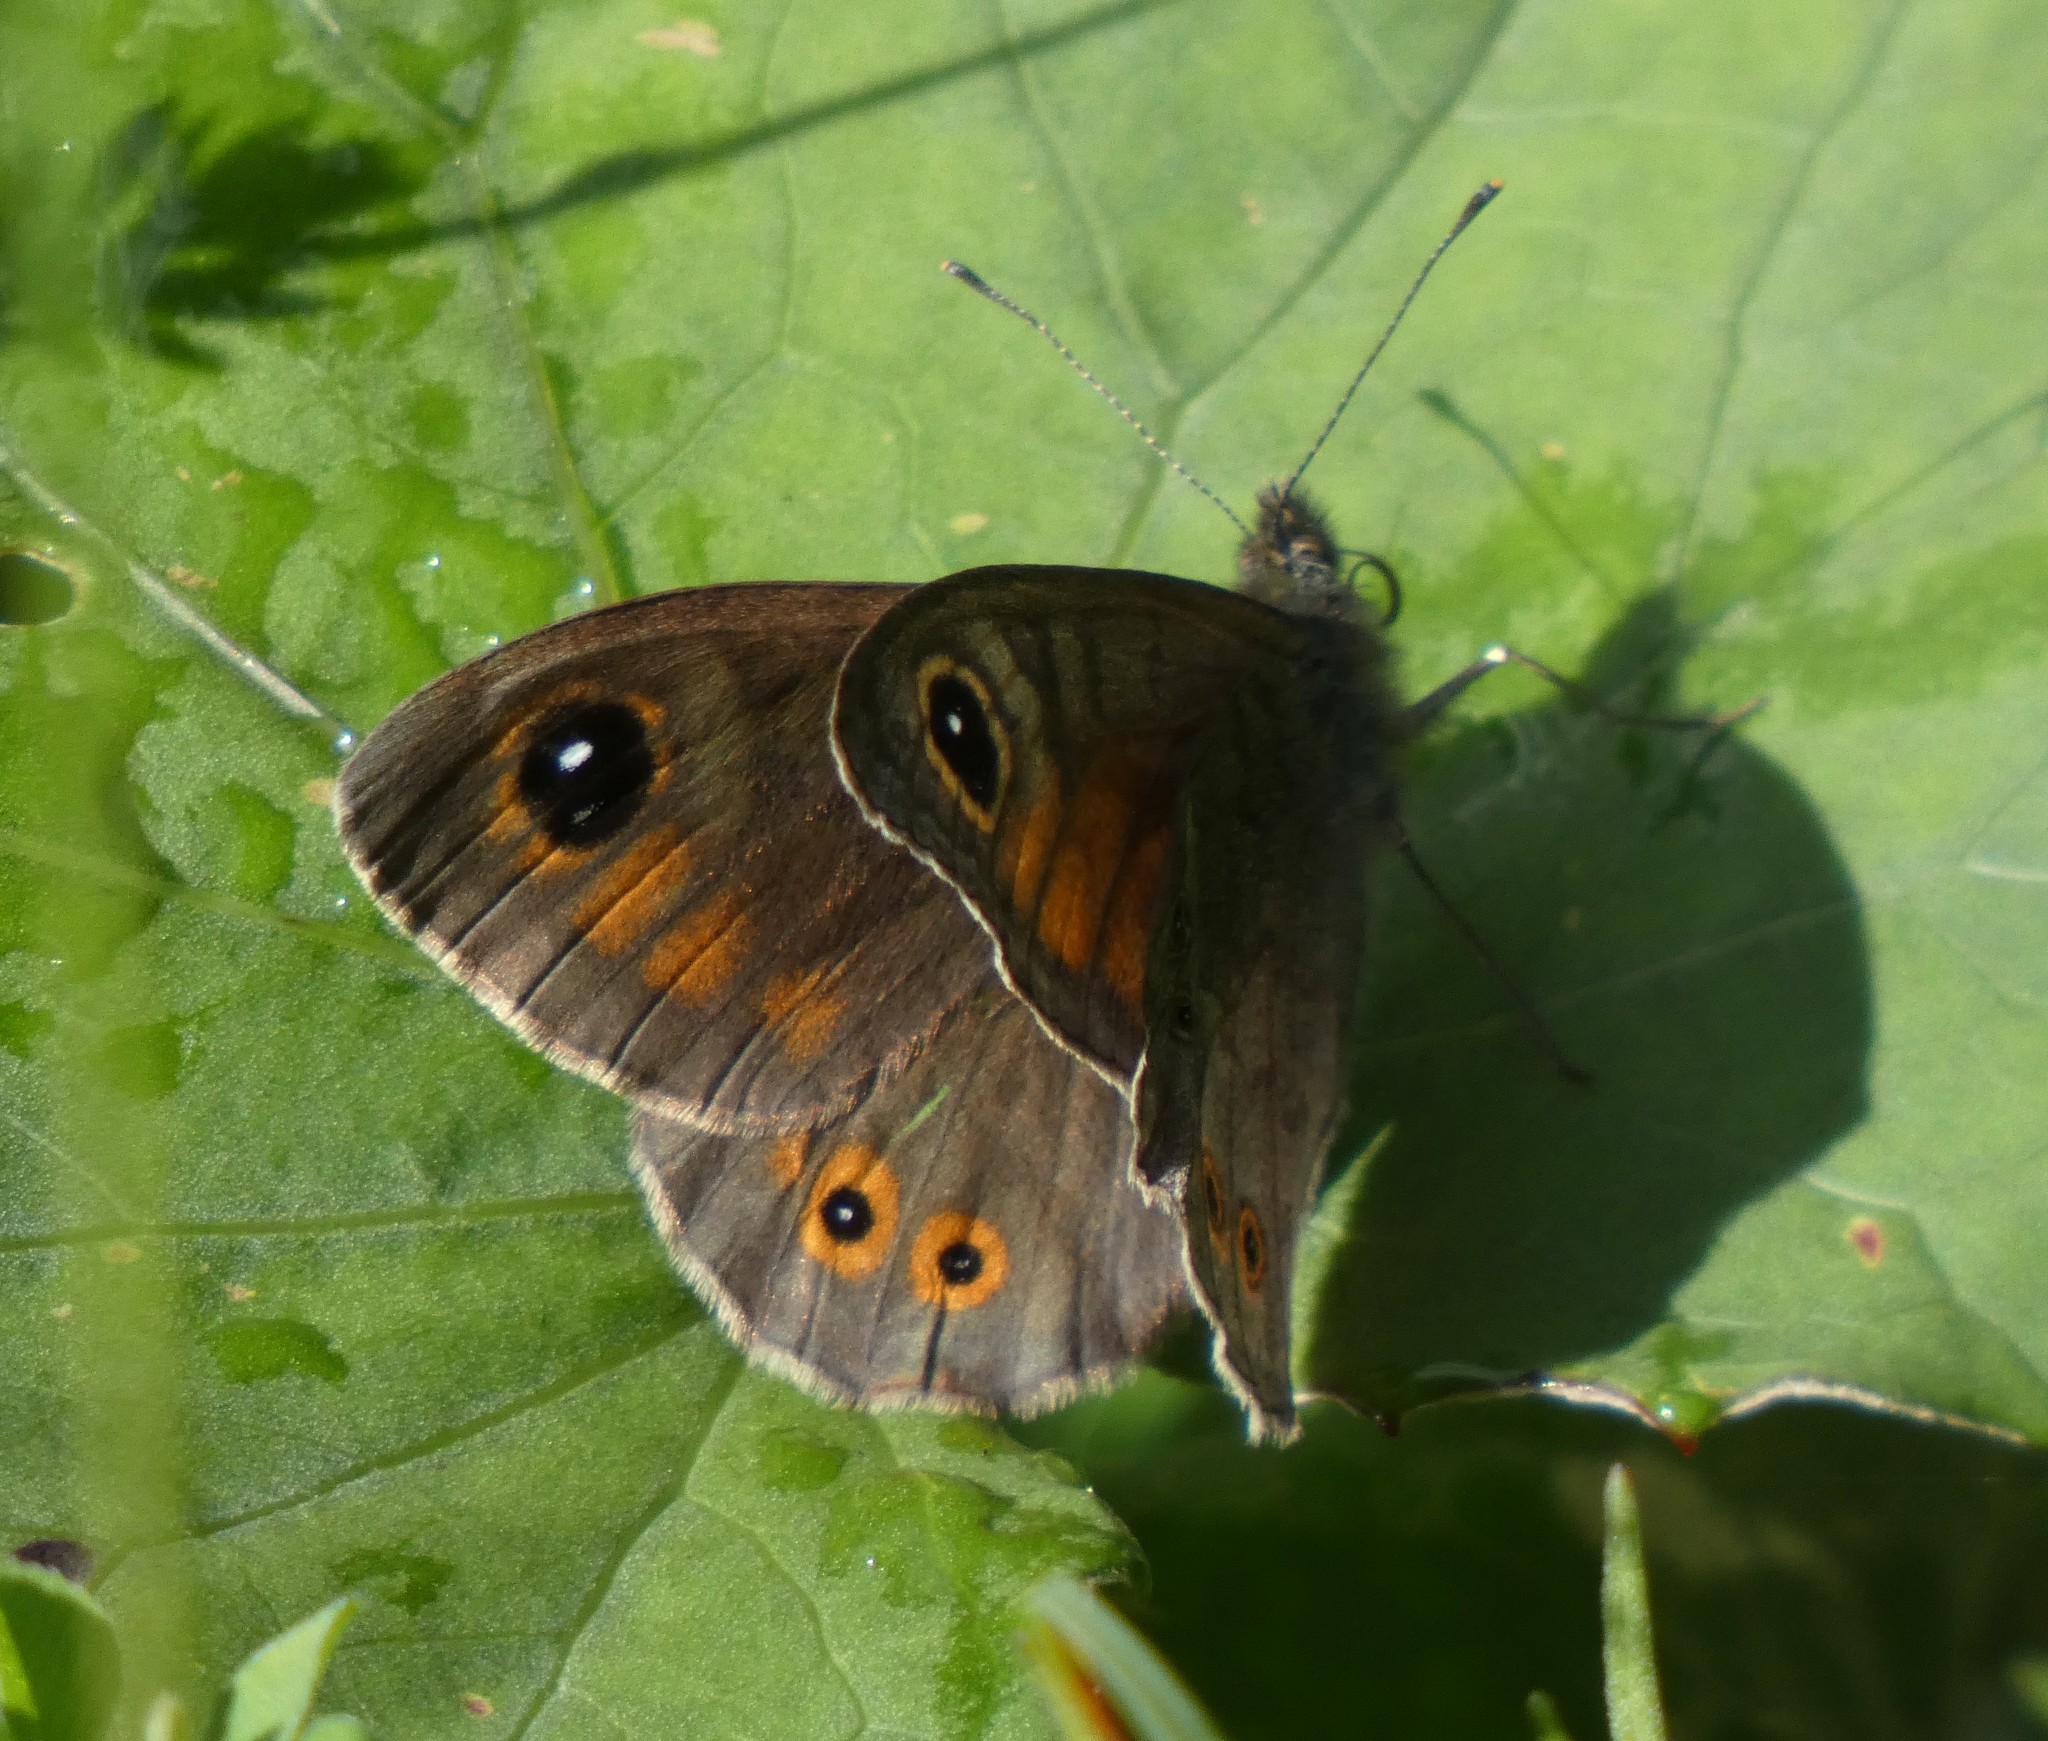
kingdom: Animalia
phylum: Arthropoda
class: Insecta
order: Lepidoptera
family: Nymphalidae
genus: Pararge
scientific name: Pararge Lasiommata maera
